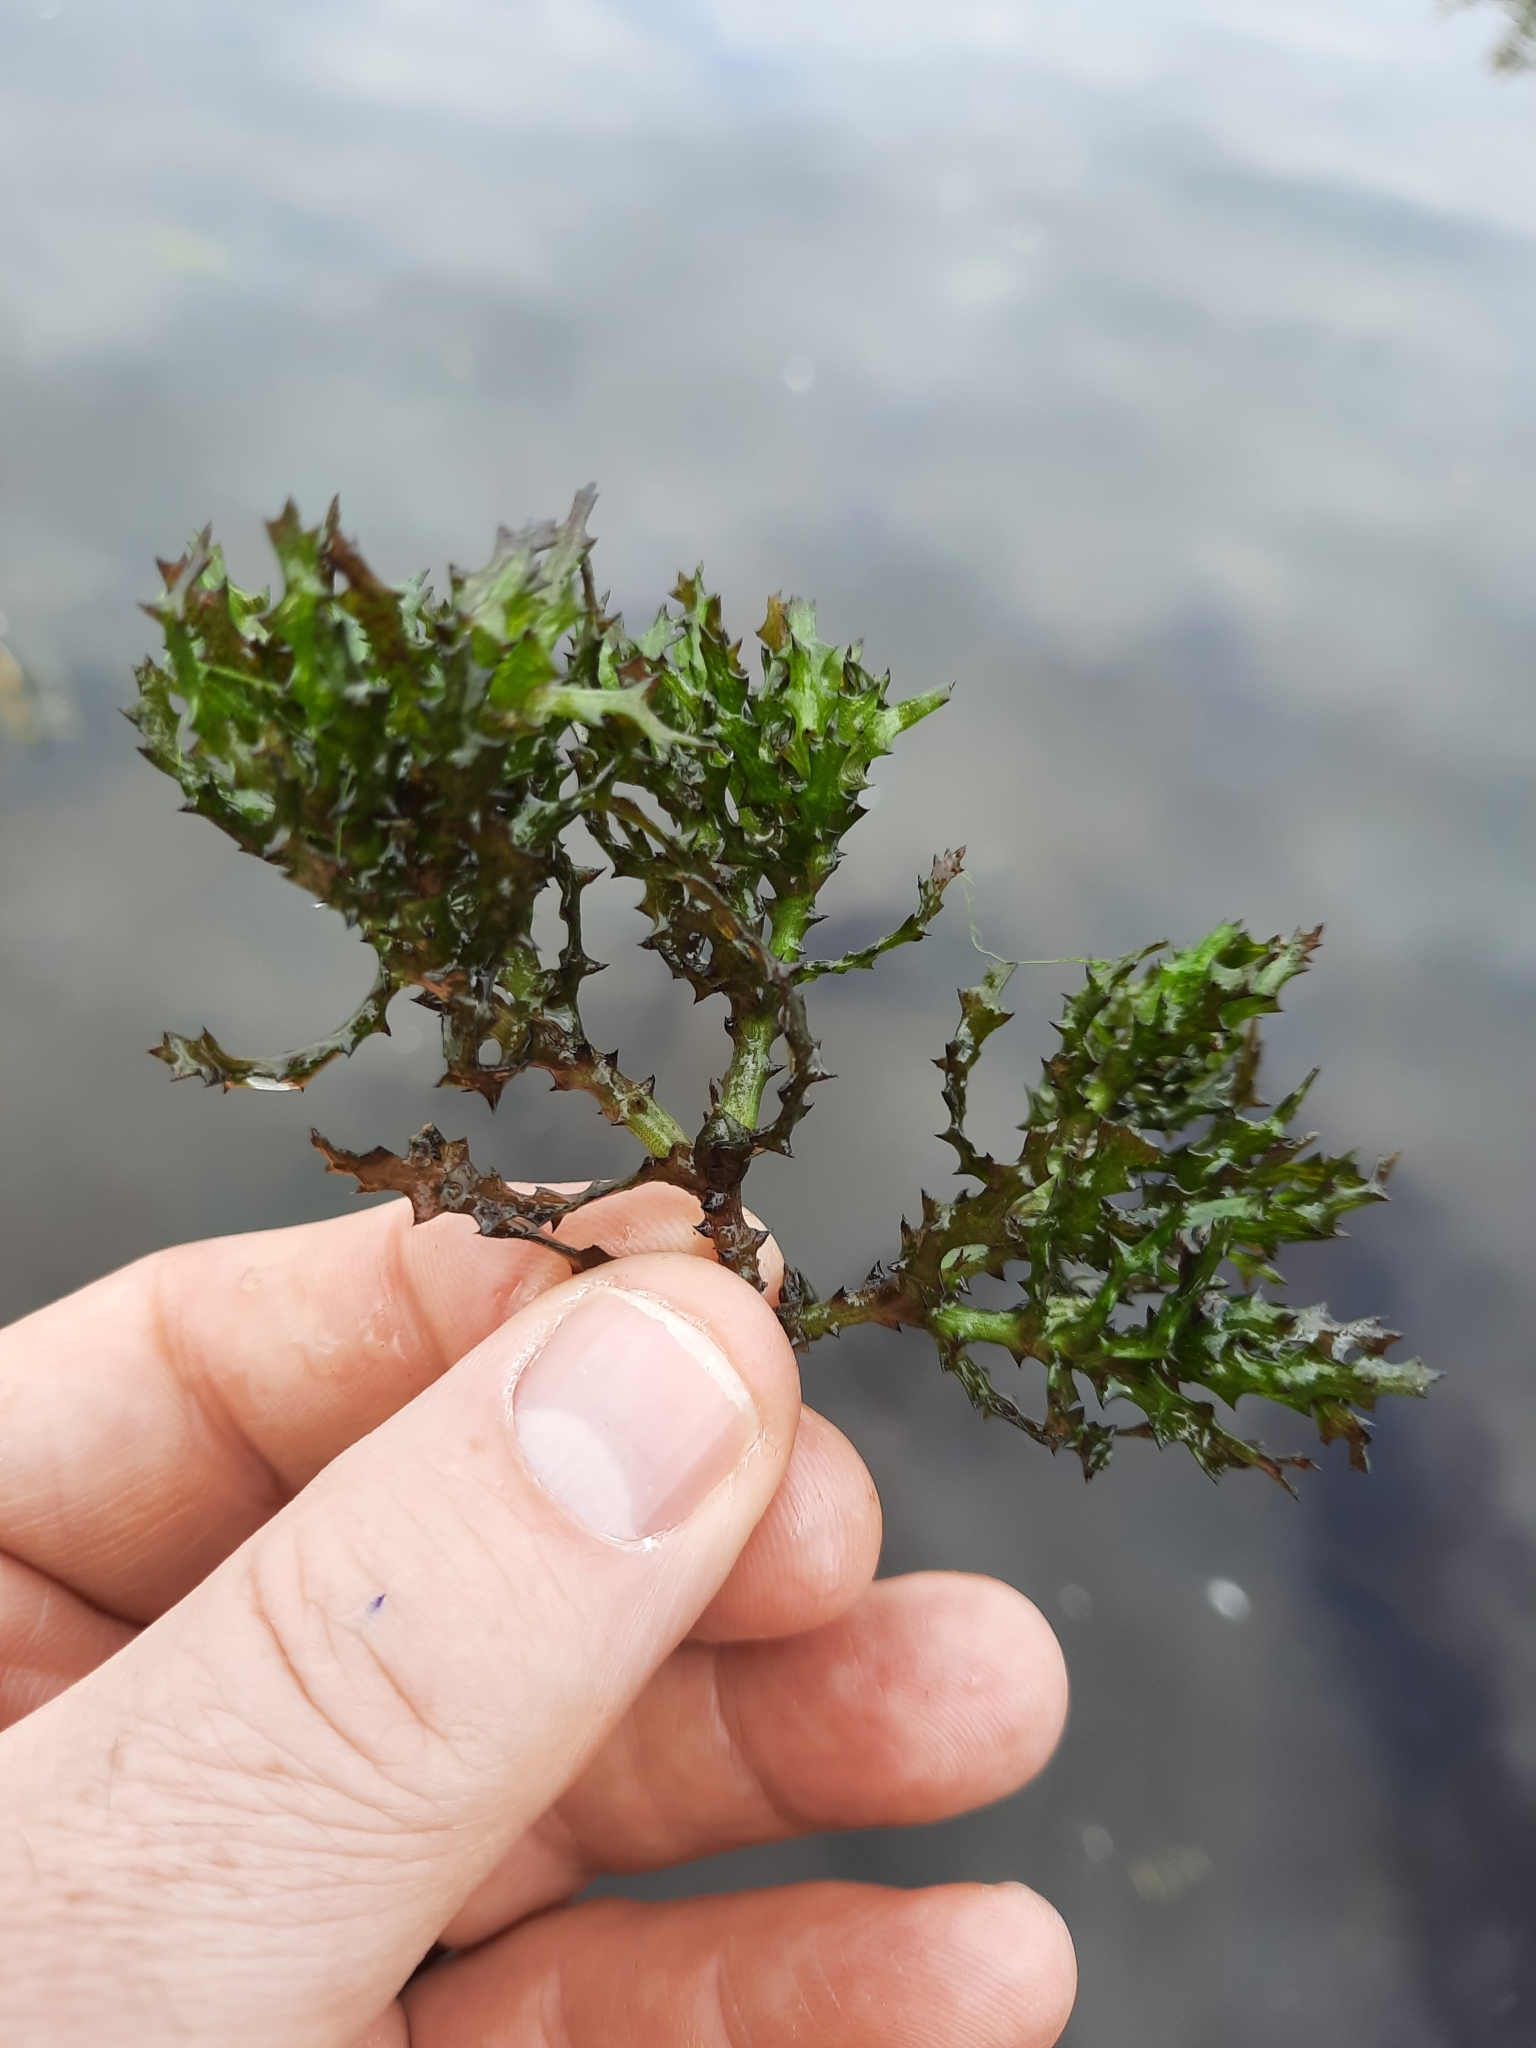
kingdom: Plantae
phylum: Tracheophyta
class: Liliopsida
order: Alismatales
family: Hydrocharitaceae
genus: Najas
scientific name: Najas marina
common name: Holly-leaved naiad
